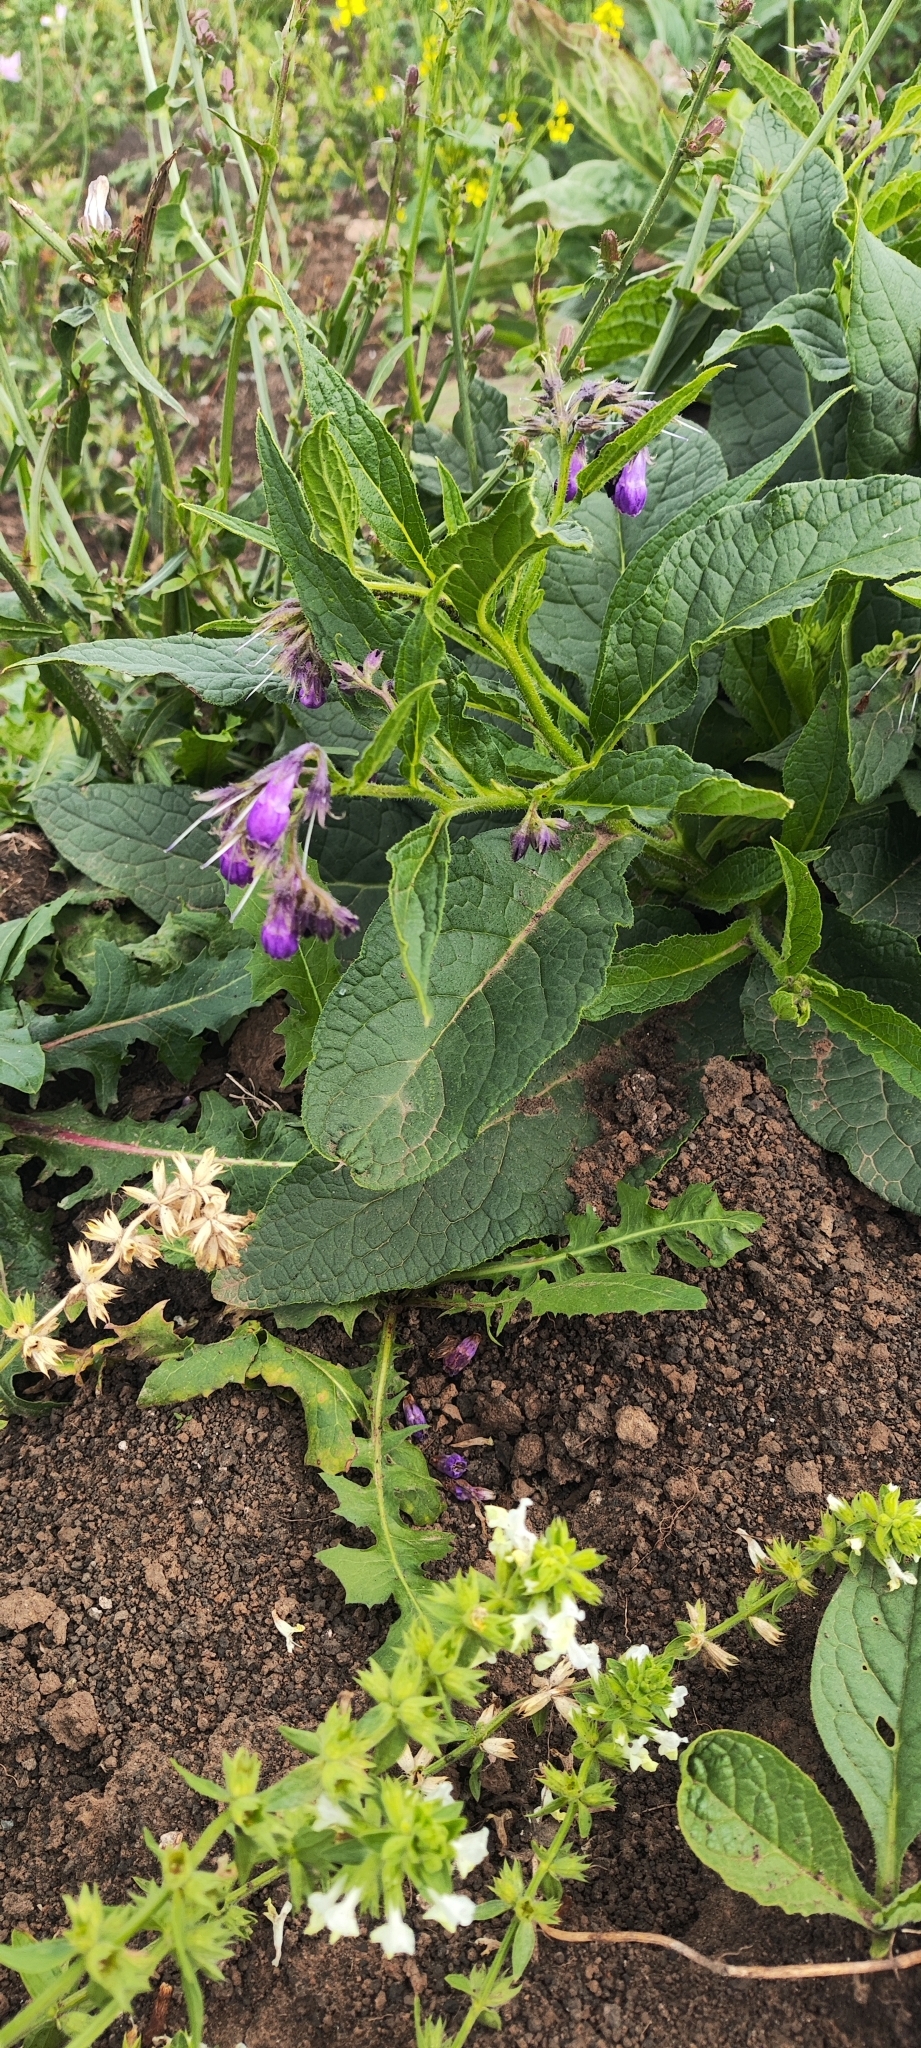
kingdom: Plantae
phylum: Tracheophyta
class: Magnoliopsida
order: Boraginales
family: Boraginaceae
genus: Symphytum
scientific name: Symphytum officinale
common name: Common comfrey
